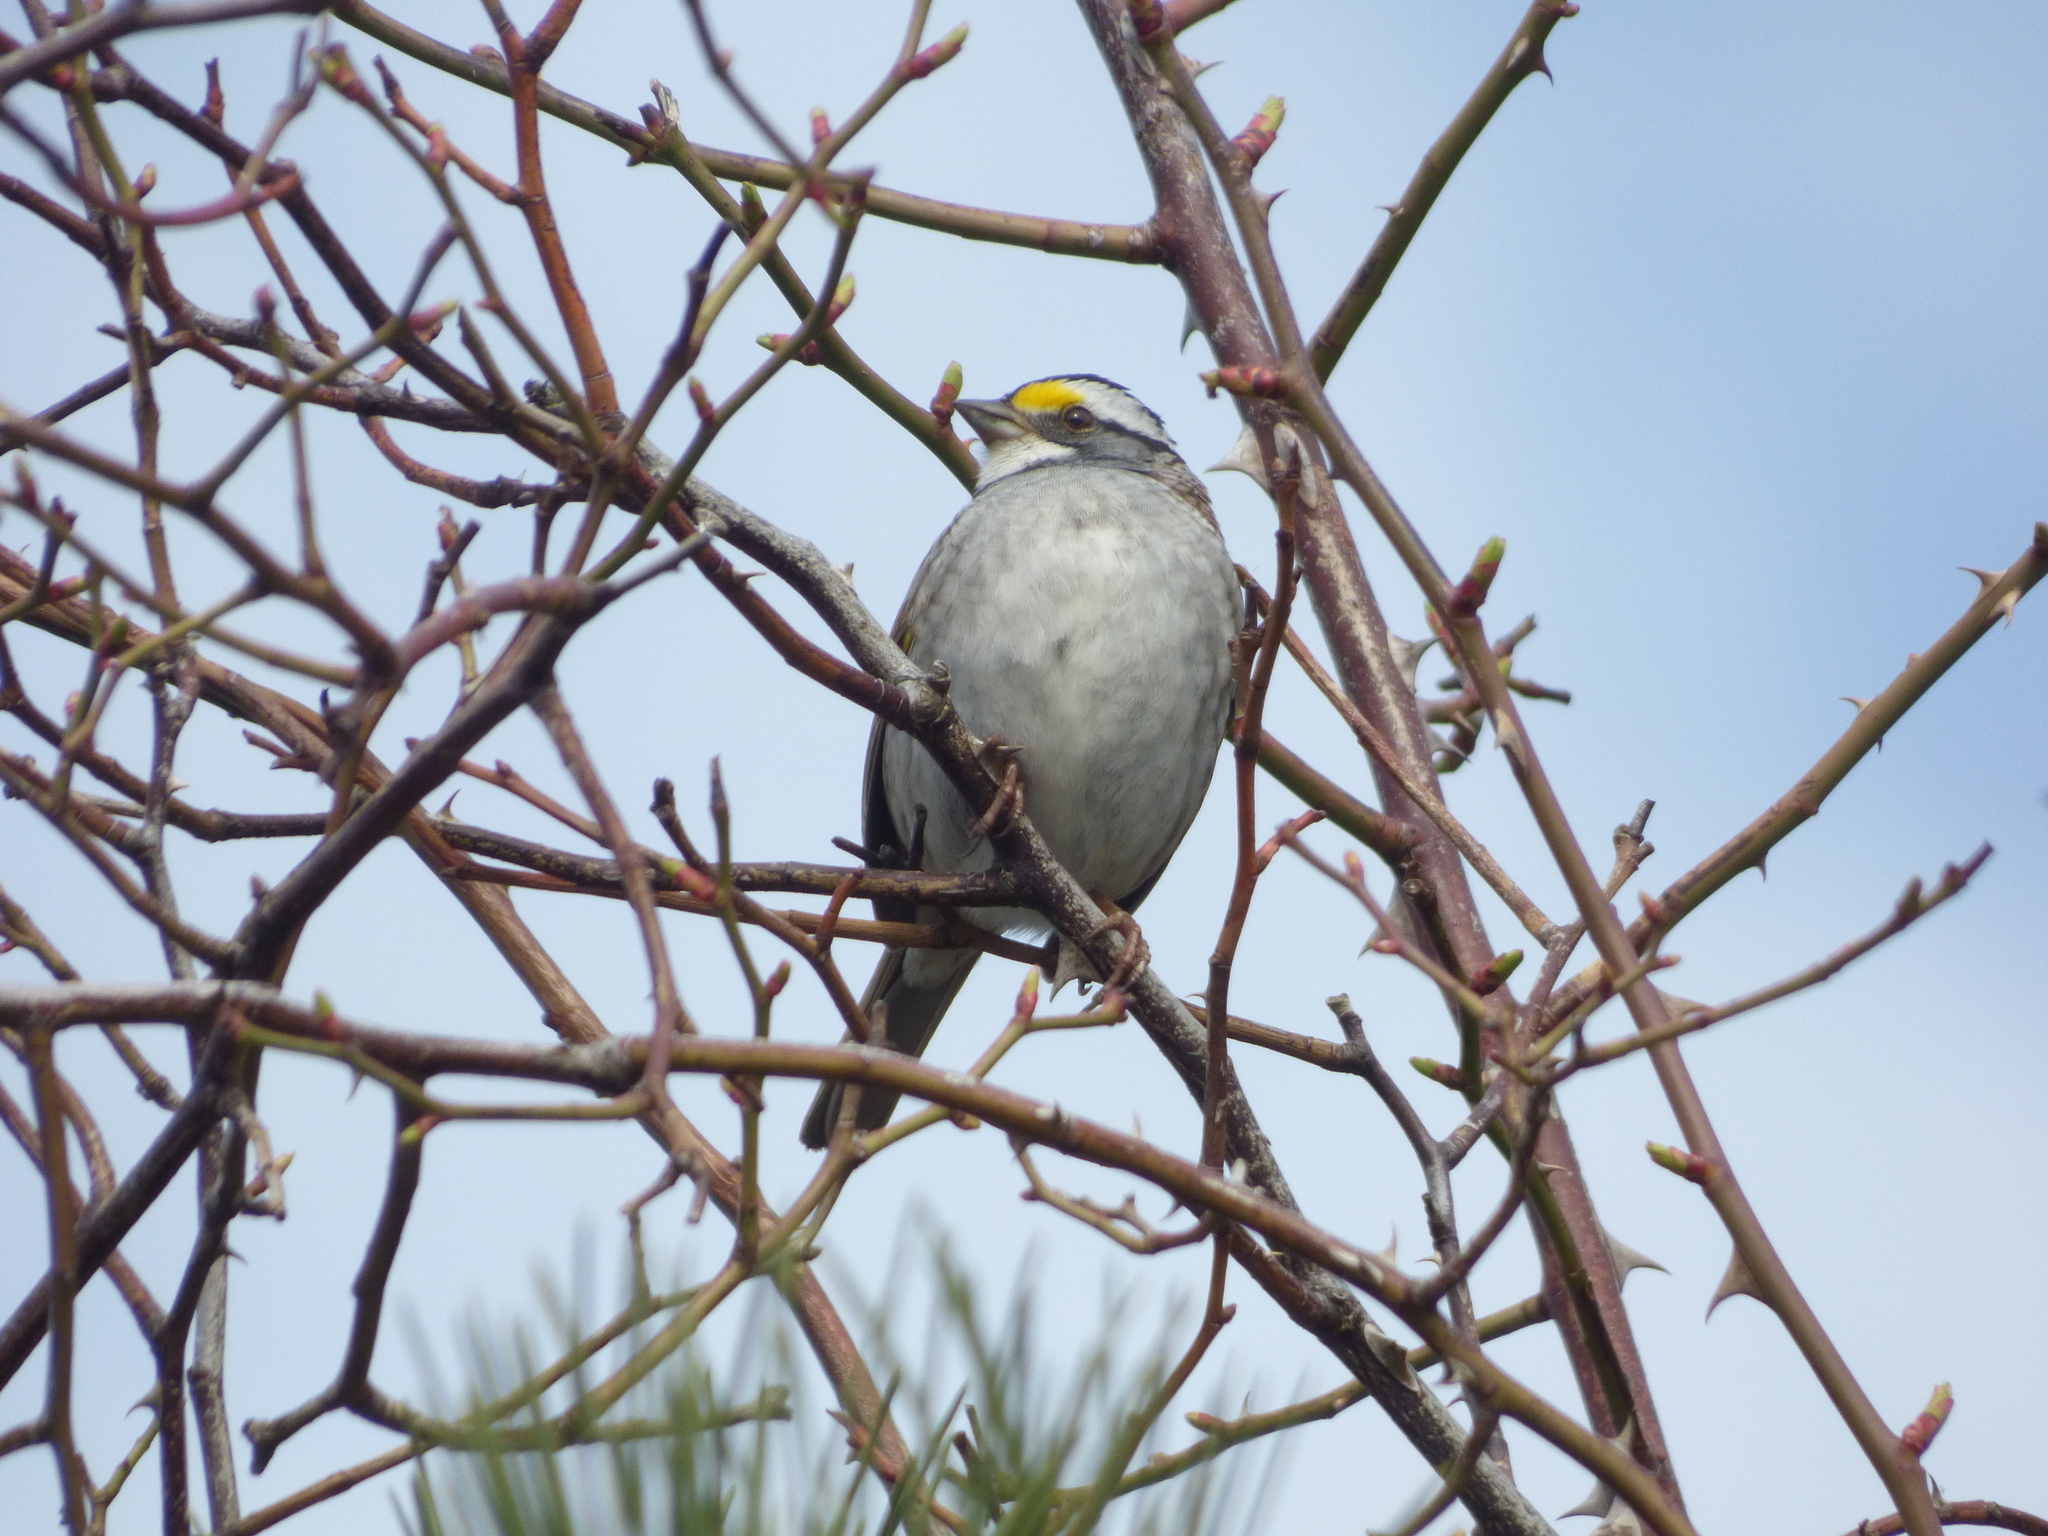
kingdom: Animalia
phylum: Chordata
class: Aves
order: Passeriformes
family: Passerellidae
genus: Zonotrichia
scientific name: Zonotrichia albicollis
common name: White-throated sparrow
